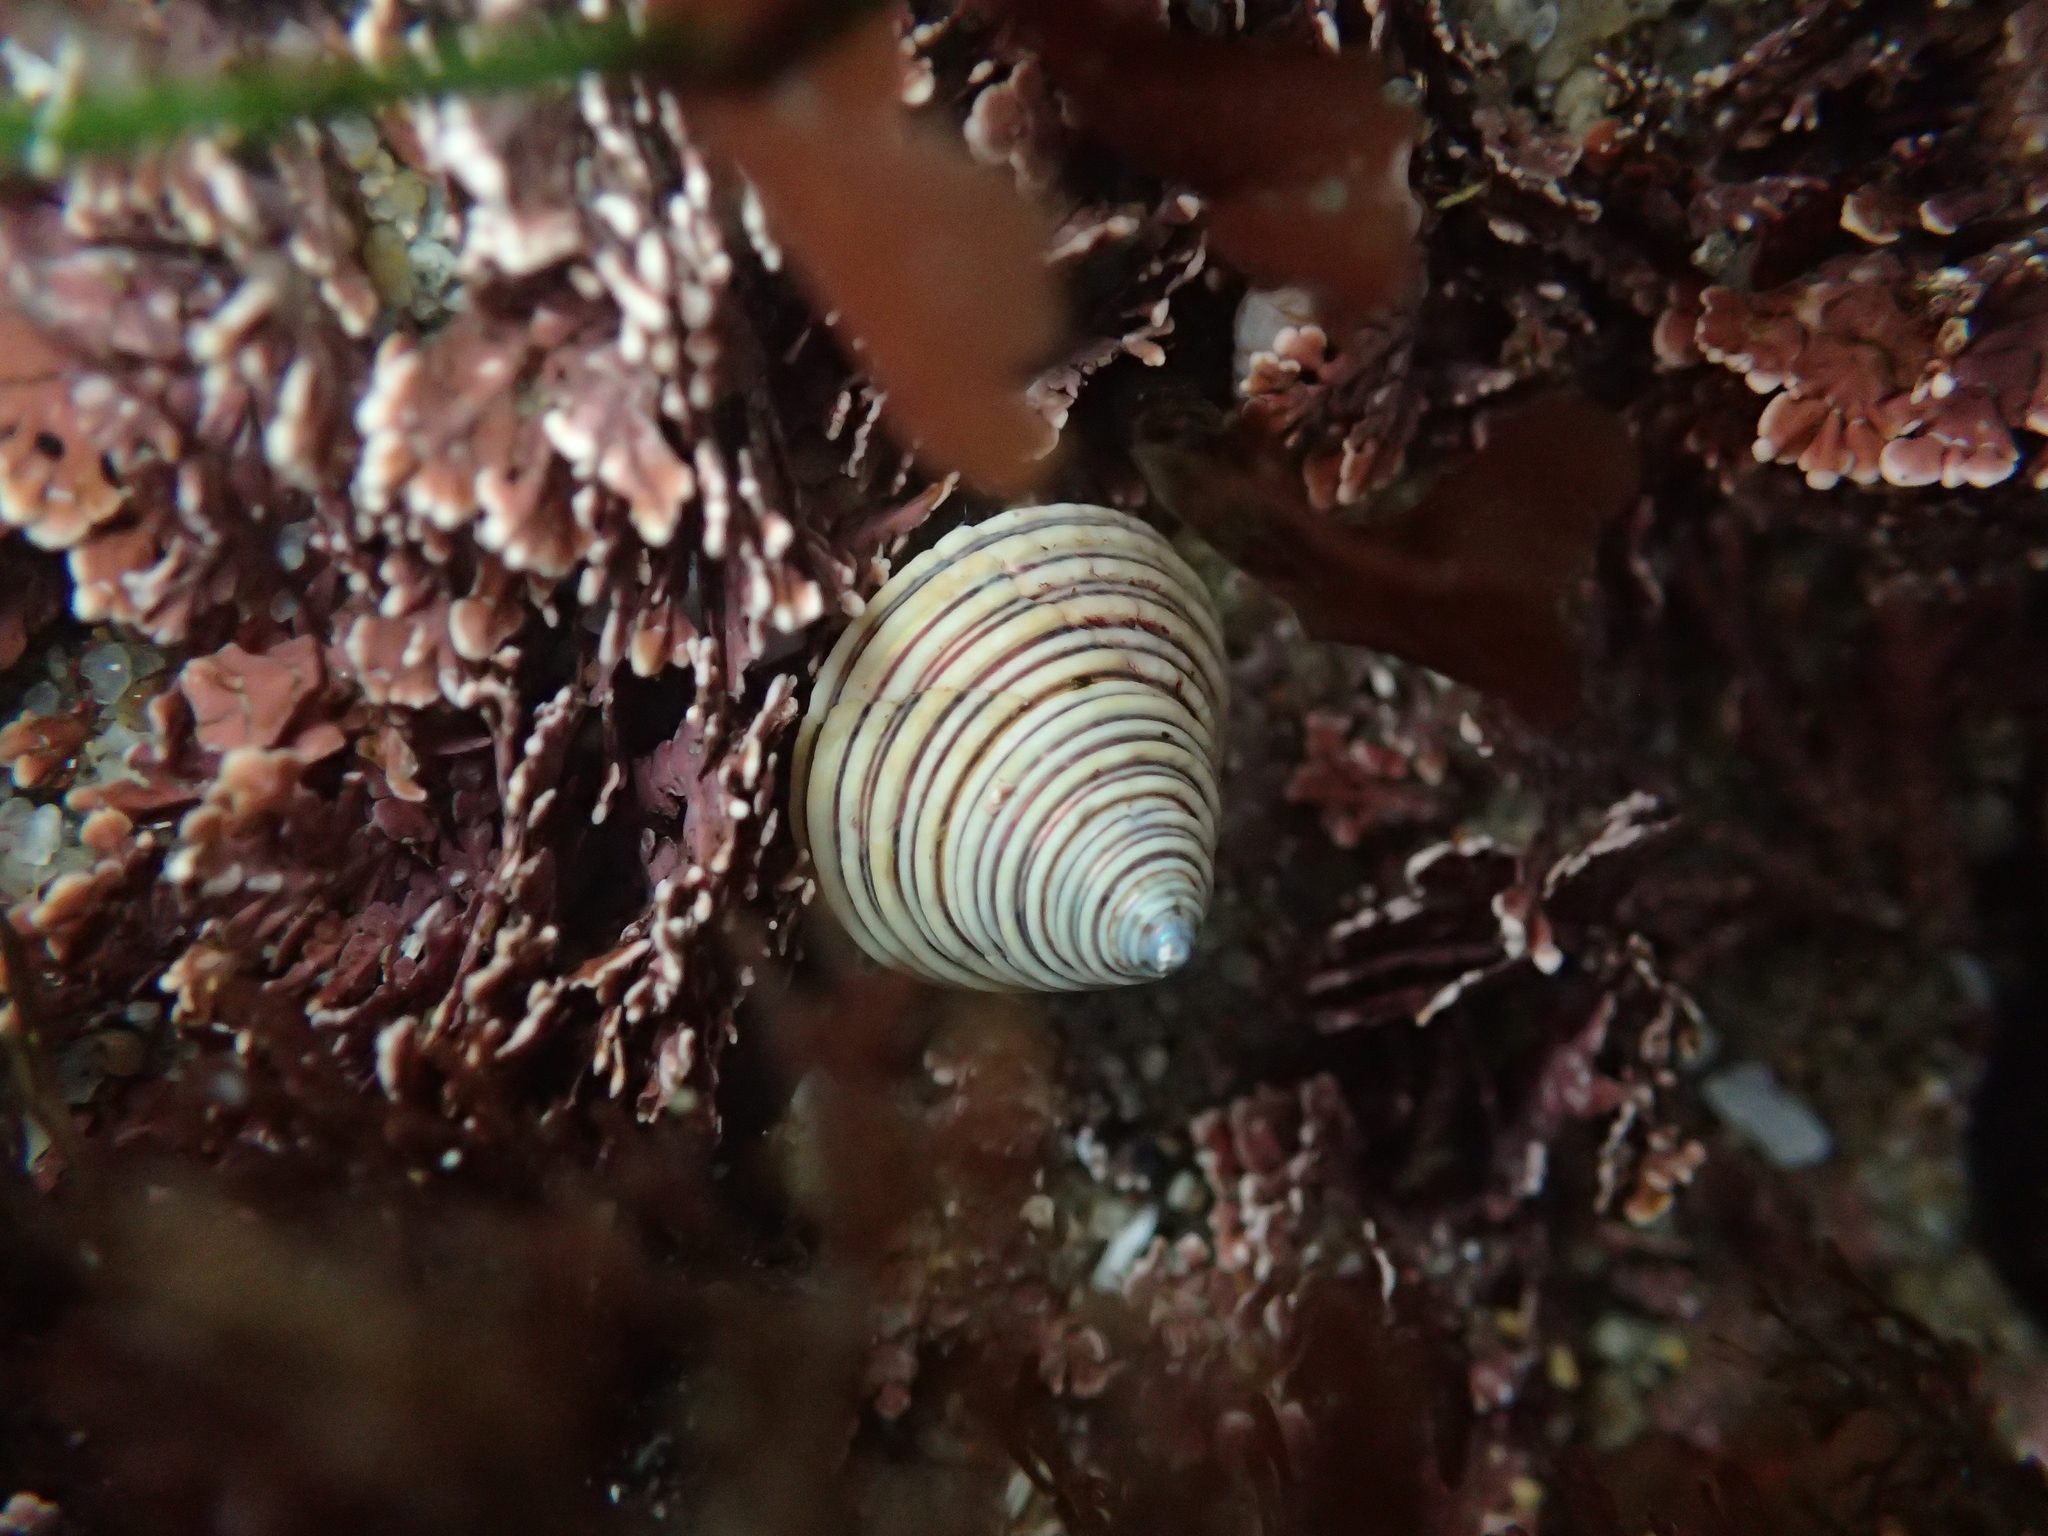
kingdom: Animalia
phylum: Mollusca
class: Gastropoda
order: Trochida
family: Calliostomatidae
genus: Calliostoma
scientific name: Calliostoma canaliculatum
